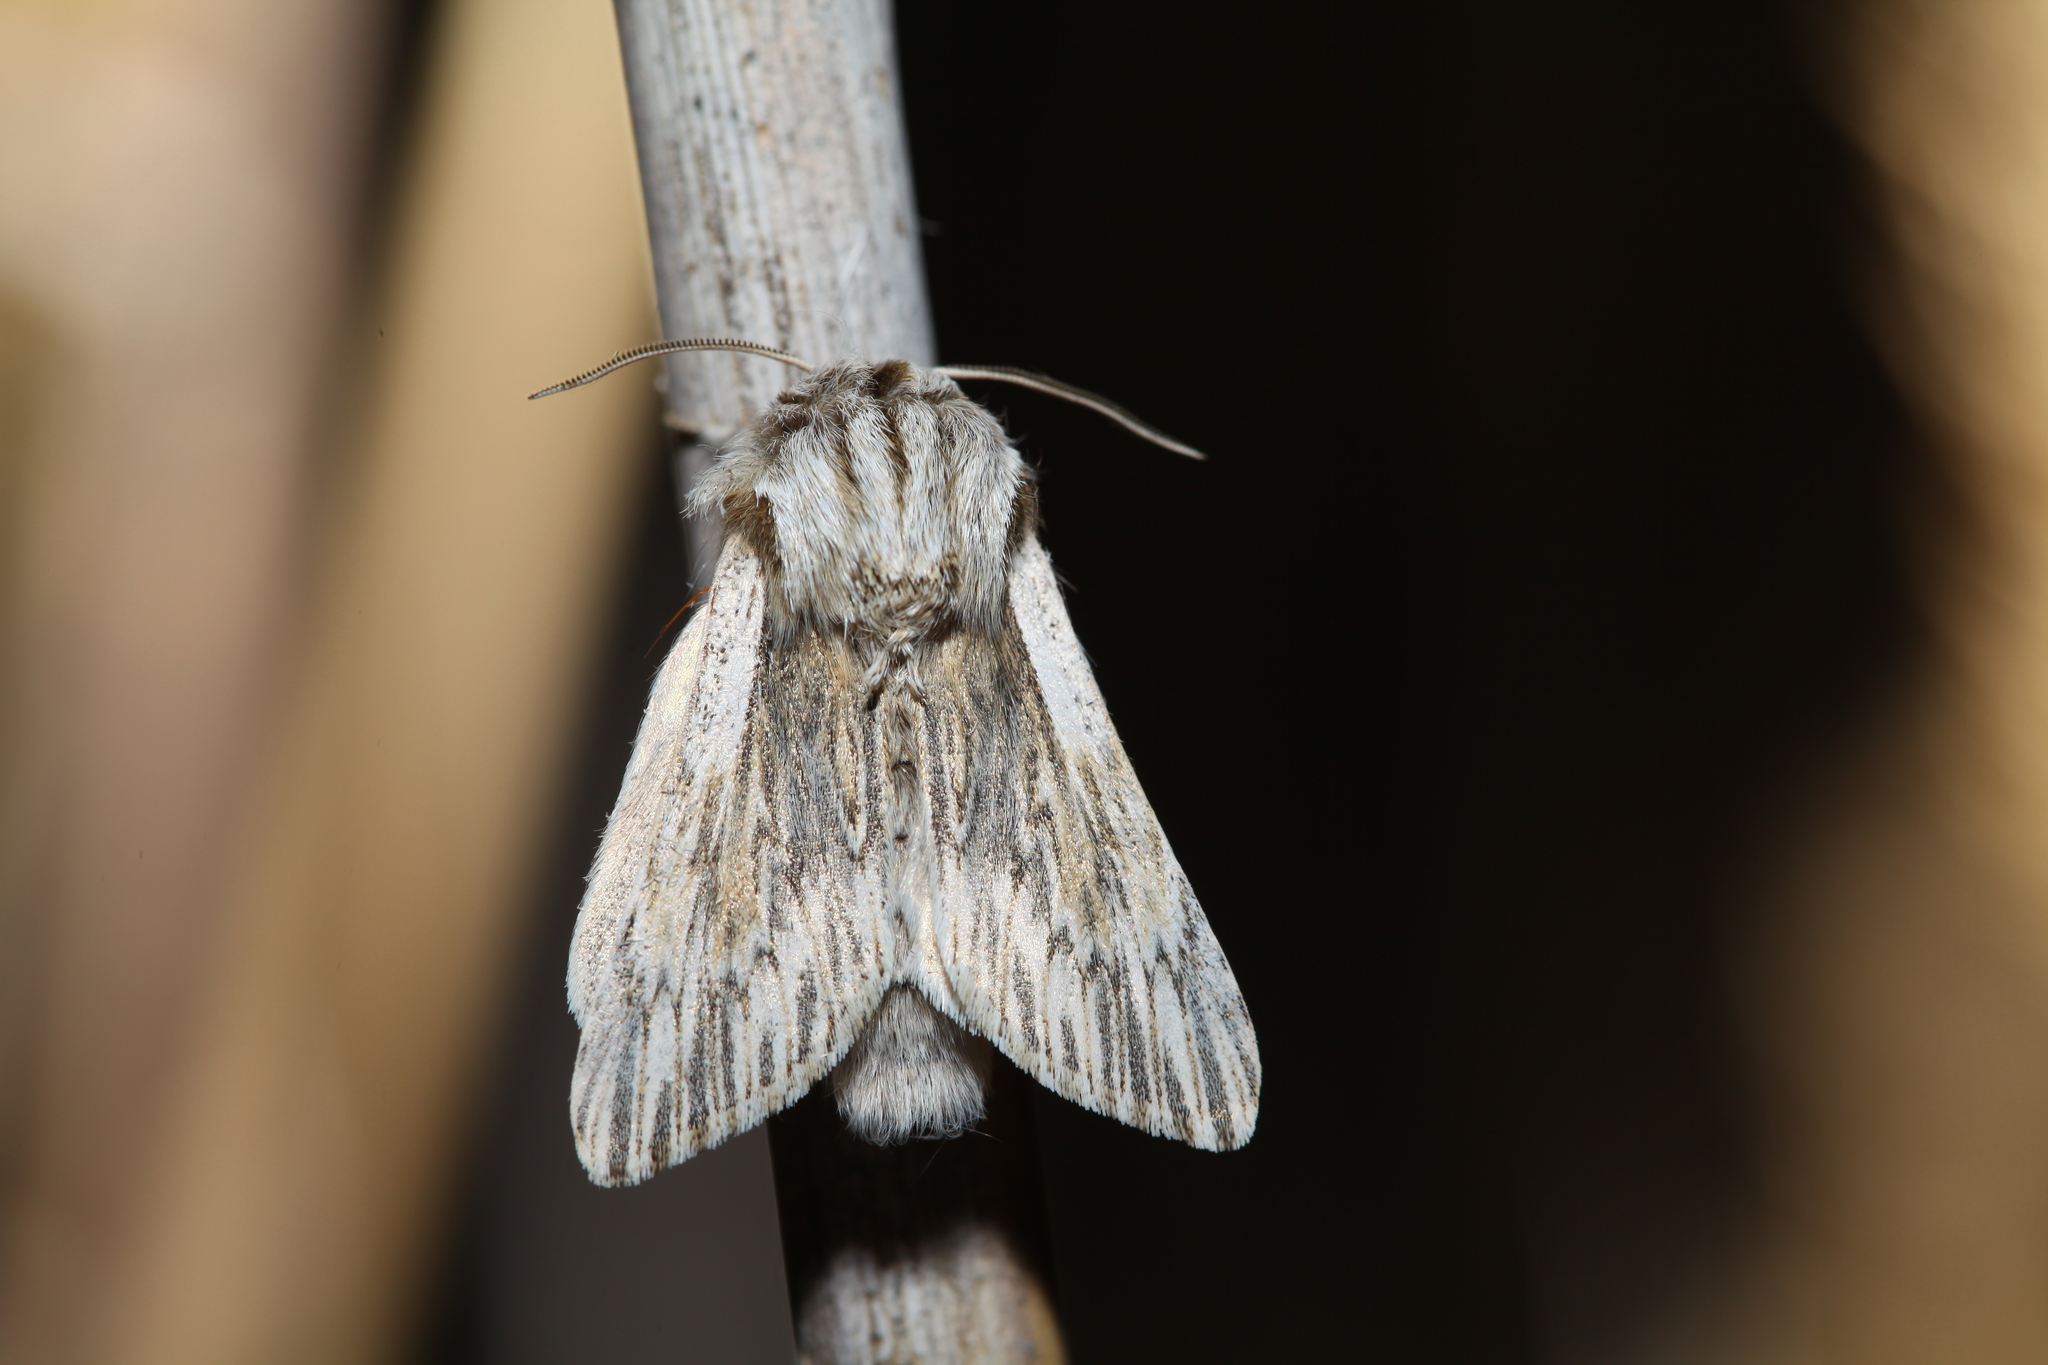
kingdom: Animalia
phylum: Arthropoda
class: Insecta
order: Lepidoptera
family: Noctuidae
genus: Acronicta
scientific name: Acronicta
